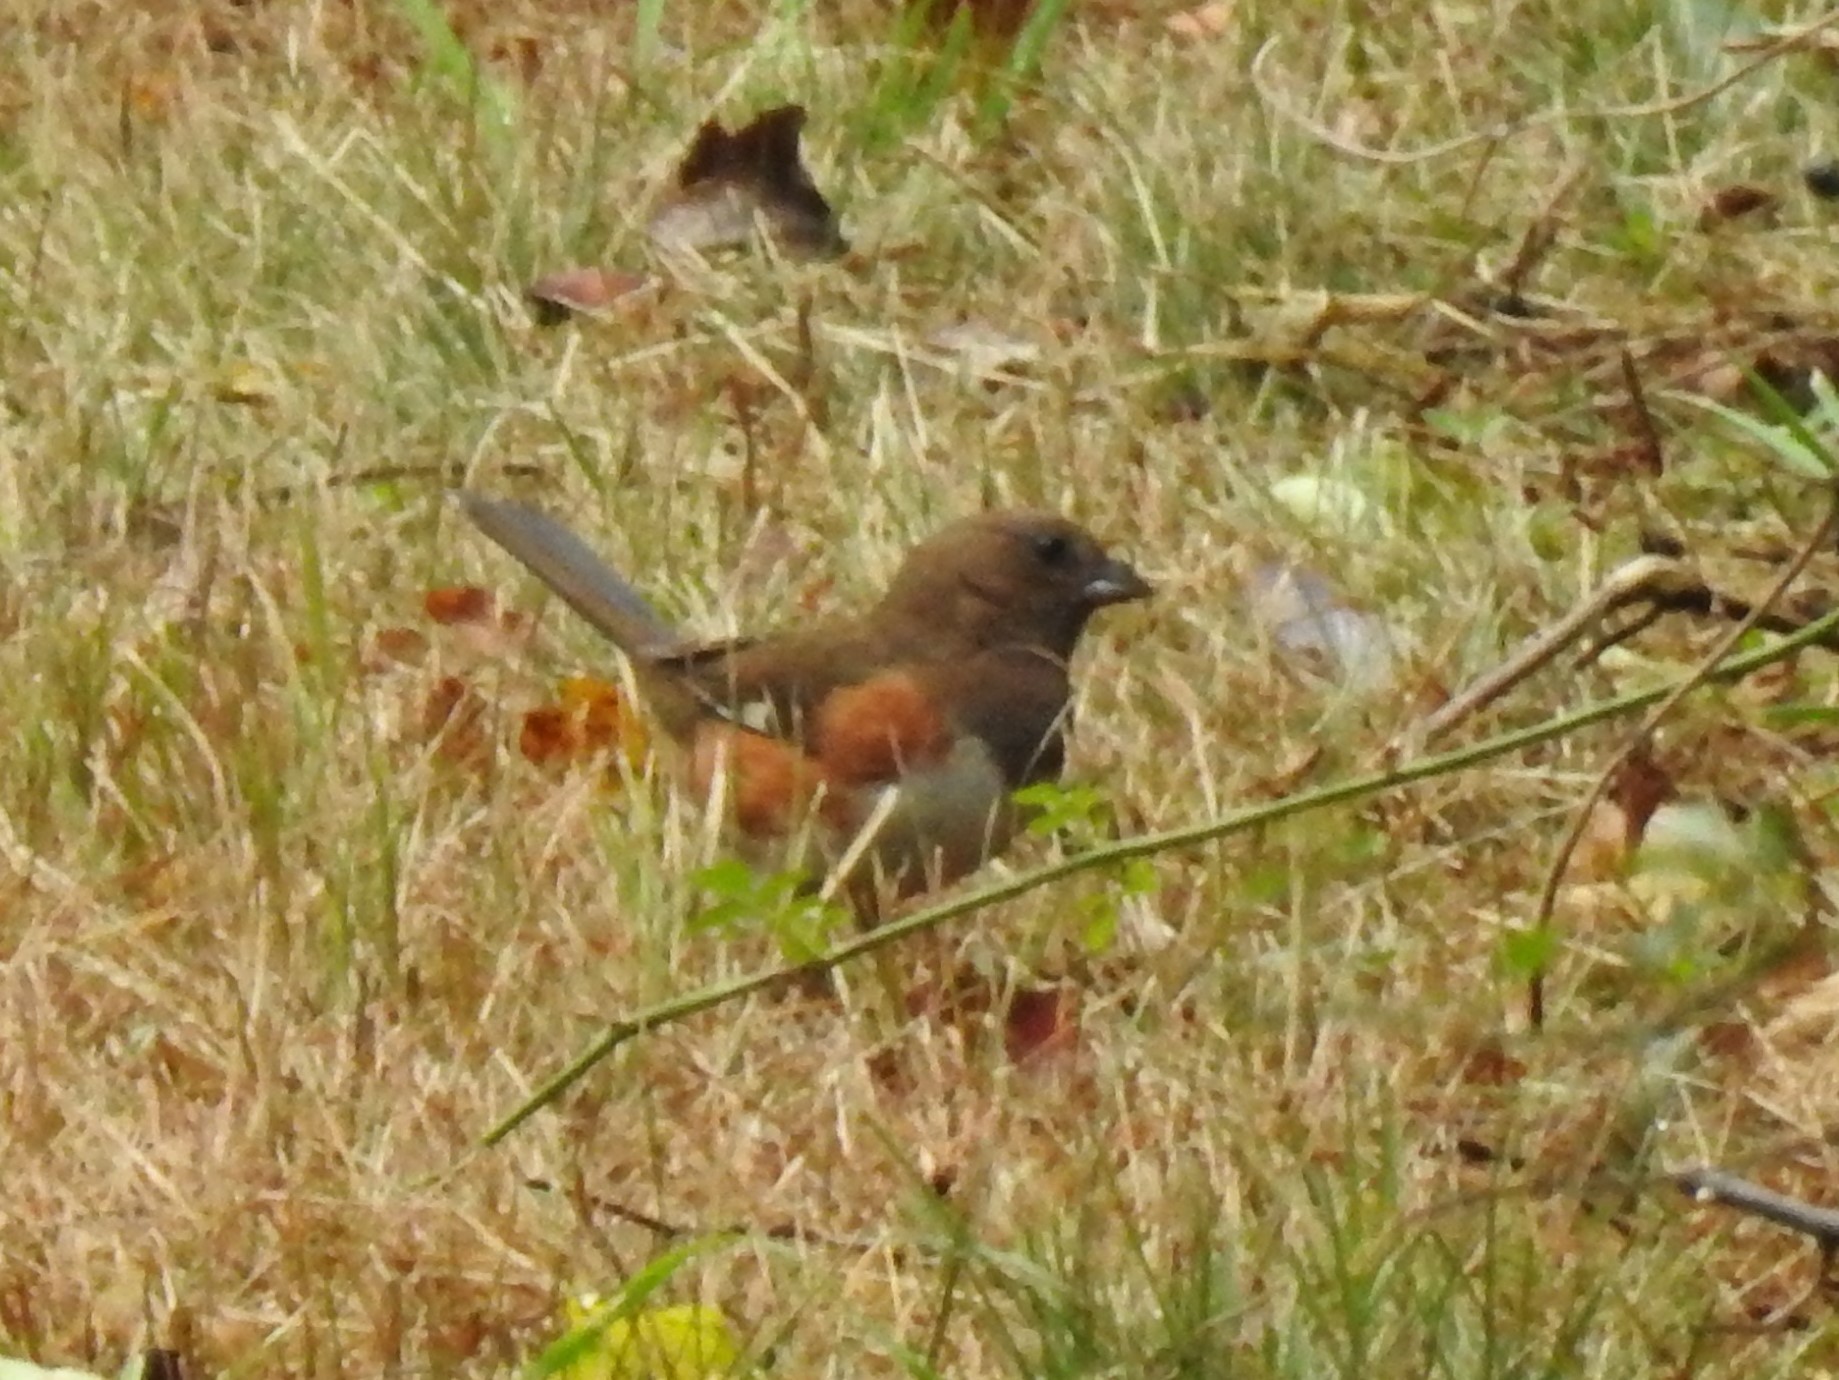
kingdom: Animalia
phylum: Chordata
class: Aves
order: Passeriformes
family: Passerellidae
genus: Pipilo
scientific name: Pipilo erythrophthalmus
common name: Eastern towhee
